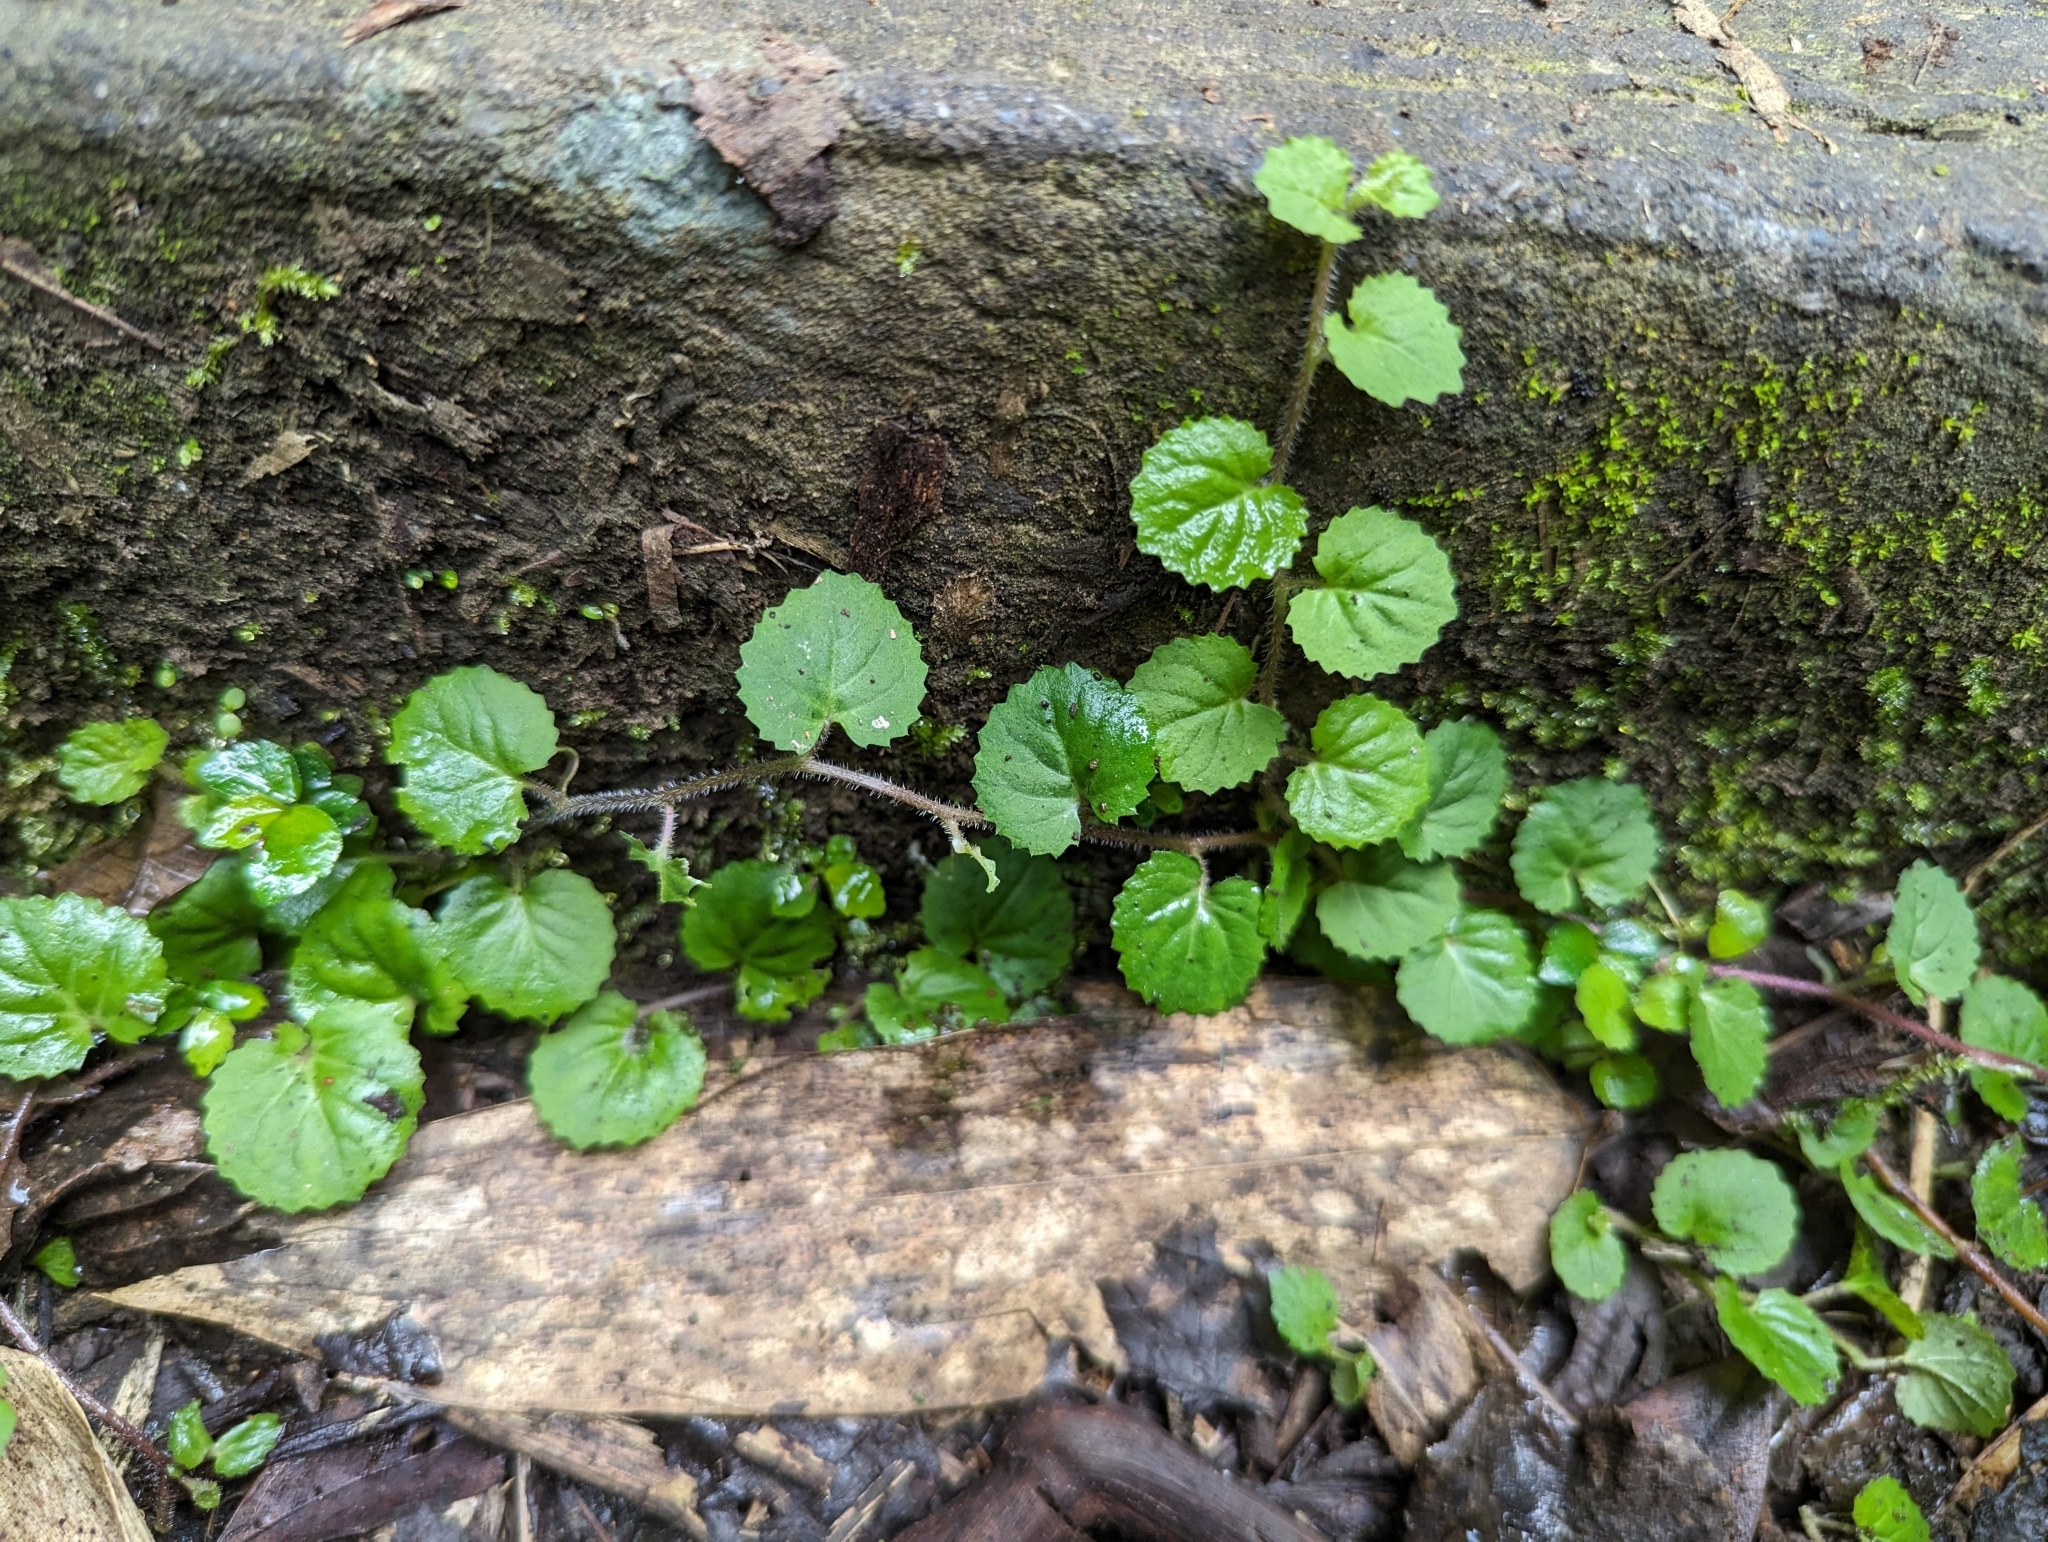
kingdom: Plantae
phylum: Tracheophyta
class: Magnoliopsida
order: Asterales
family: Campanulaceae
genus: Lobelia
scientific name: Lobelia nummularia
